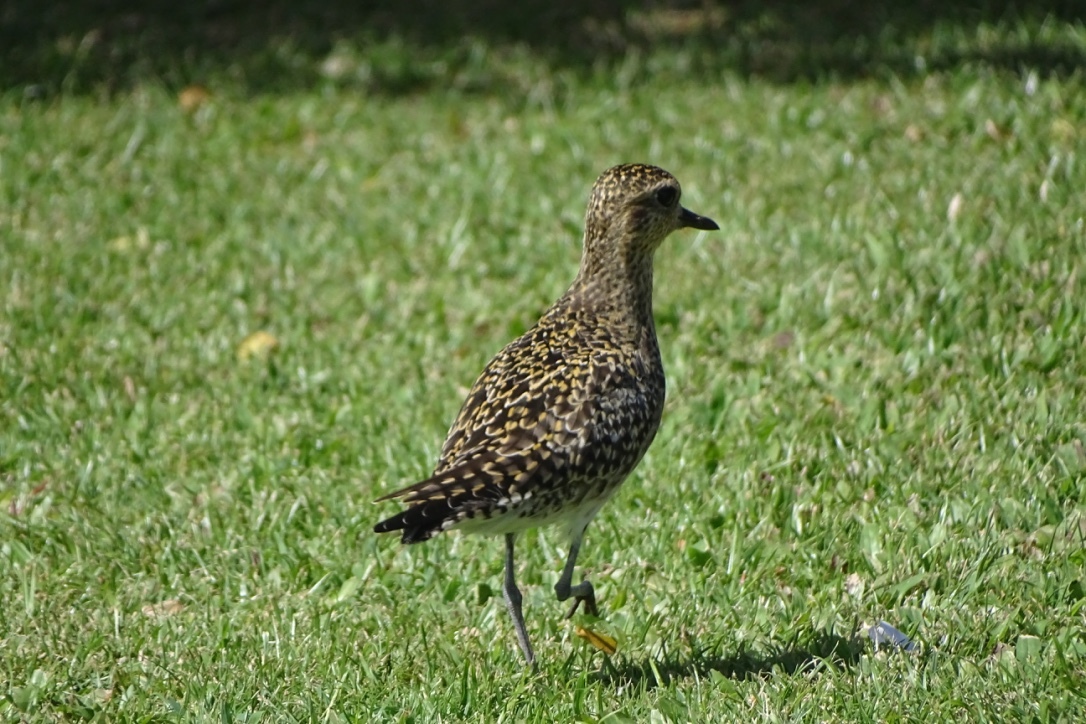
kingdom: Animalia
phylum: Chordata
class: Aves
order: Charadriiformes
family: Charadriidae
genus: Pluvialis
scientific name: Pluvialis fulva
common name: Pacific golden plover
